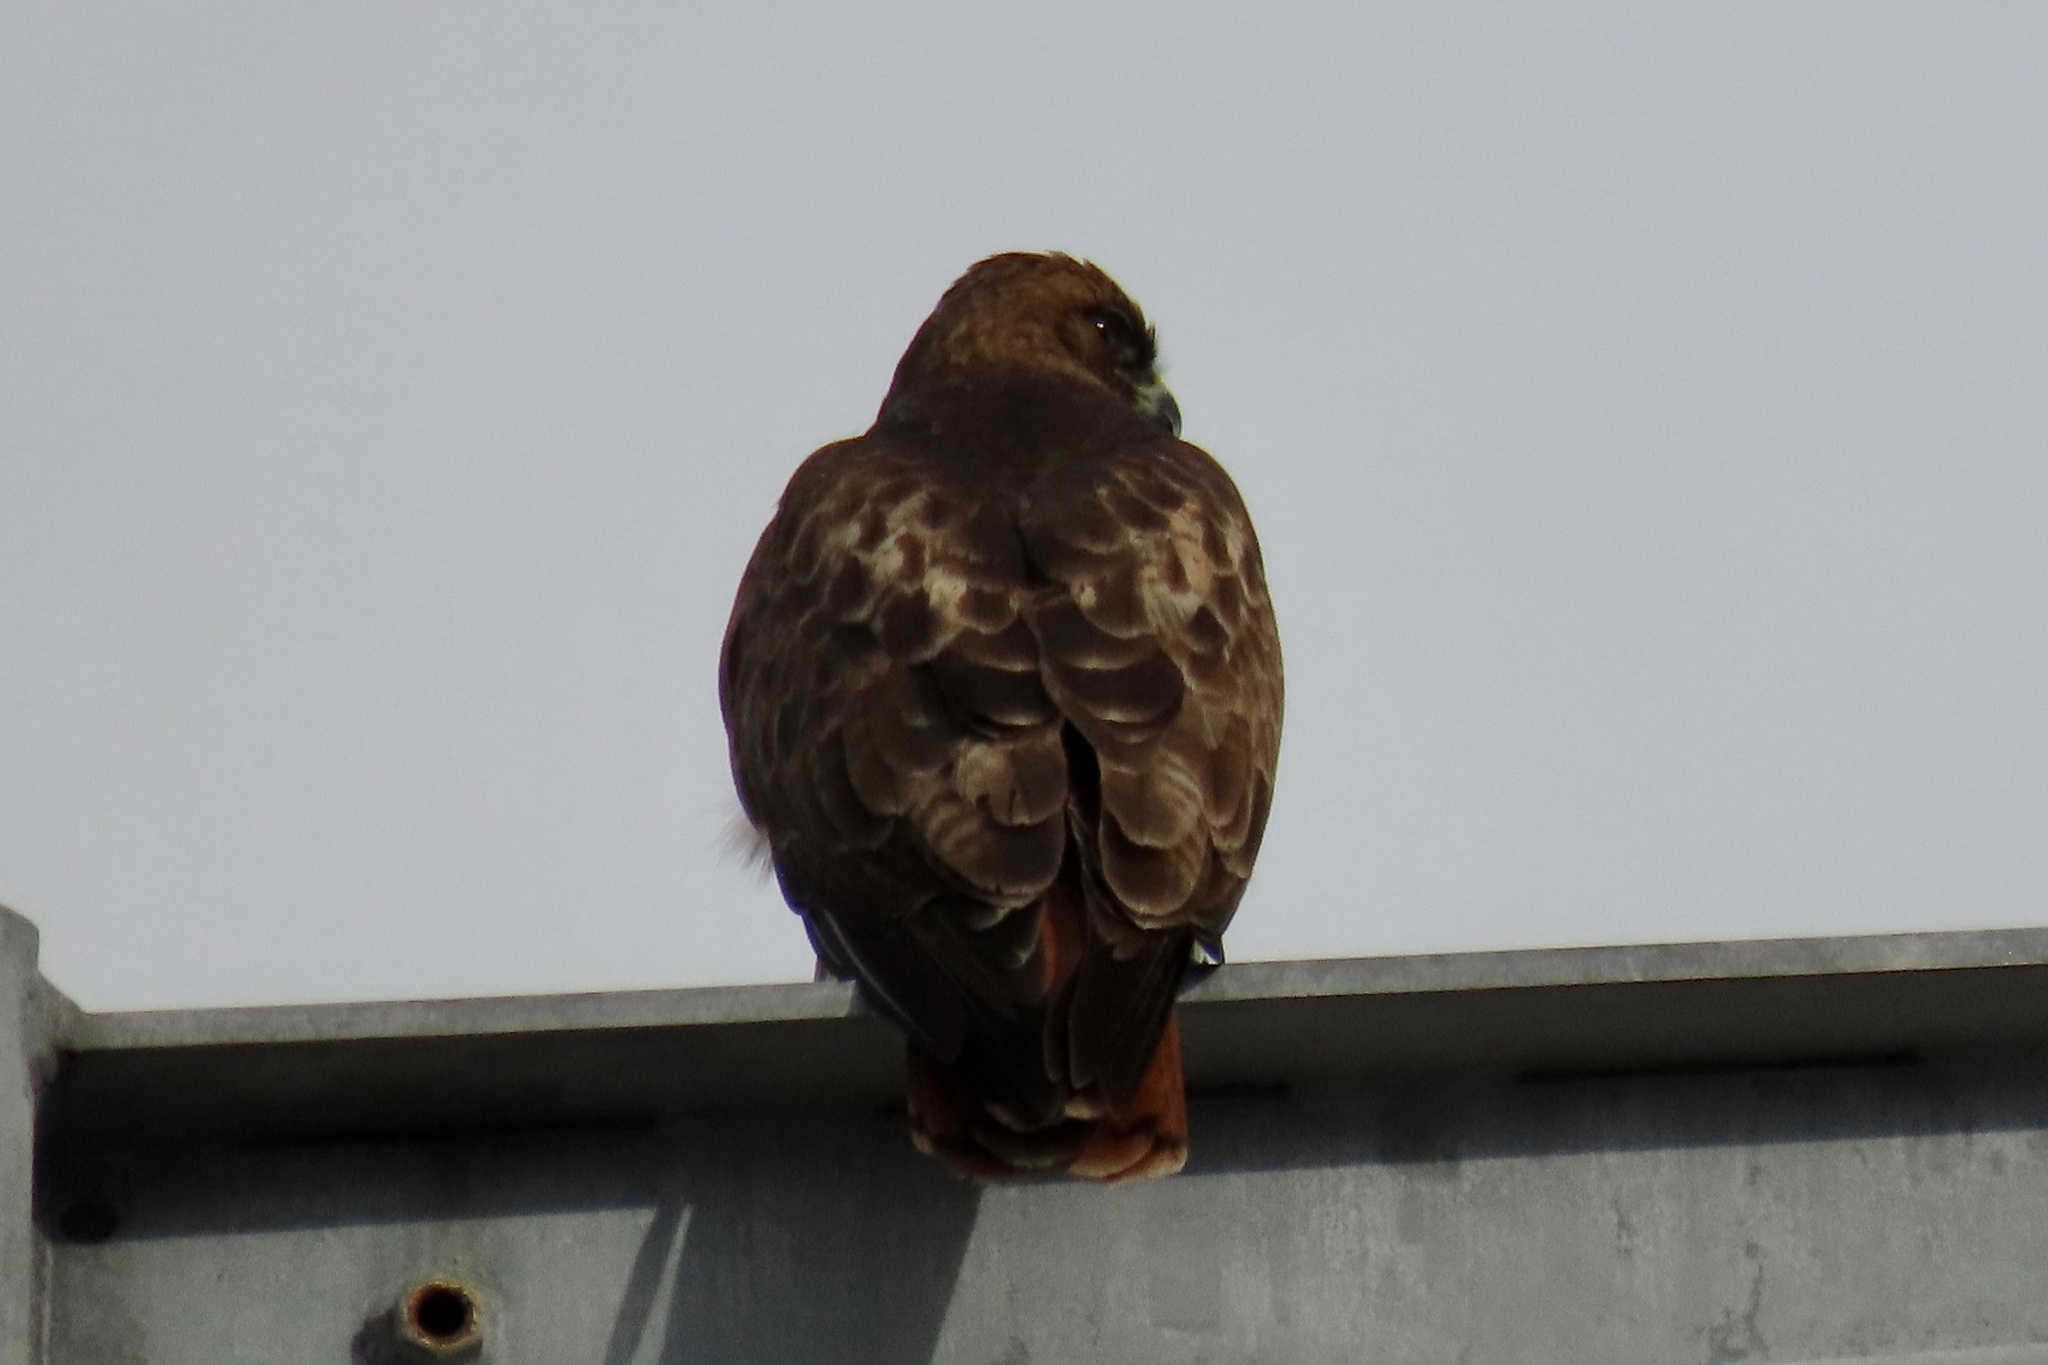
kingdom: Animalia
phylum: Chordata
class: Aves
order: Accipitriformes
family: Accipitridae
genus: Buteo
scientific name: Buteo jamaicensis
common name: Red-tailed hawk
